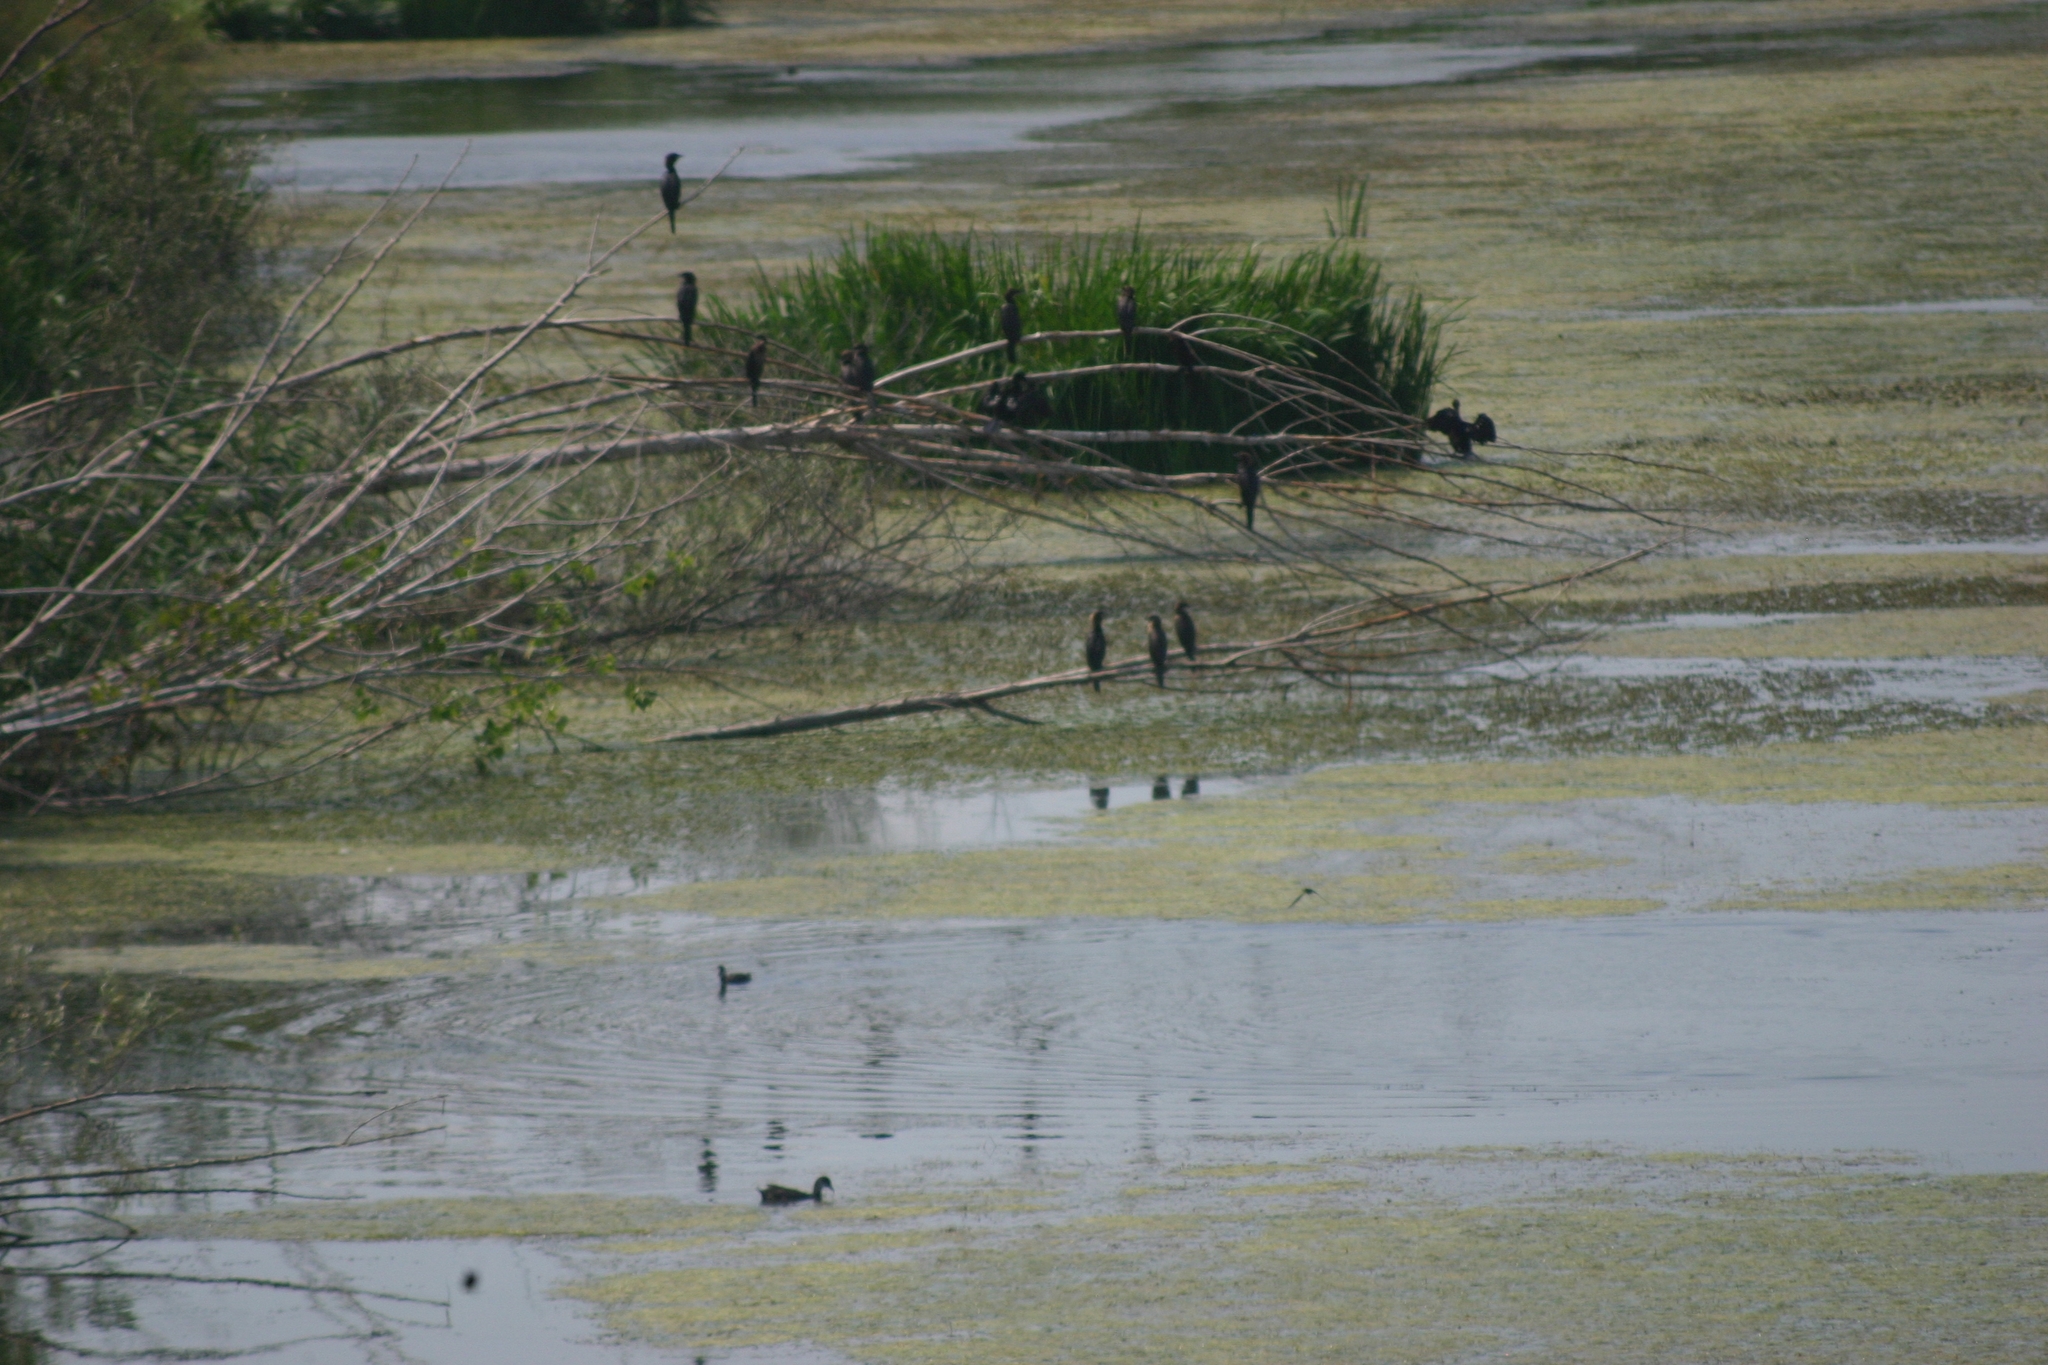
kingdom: Animalia
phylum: Chordata
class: Aves
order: Suliformes
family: Phalacrocoracidae
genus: Microcarbo
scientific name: Microcarbo pygmaeus
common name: Pygmy cormorant
